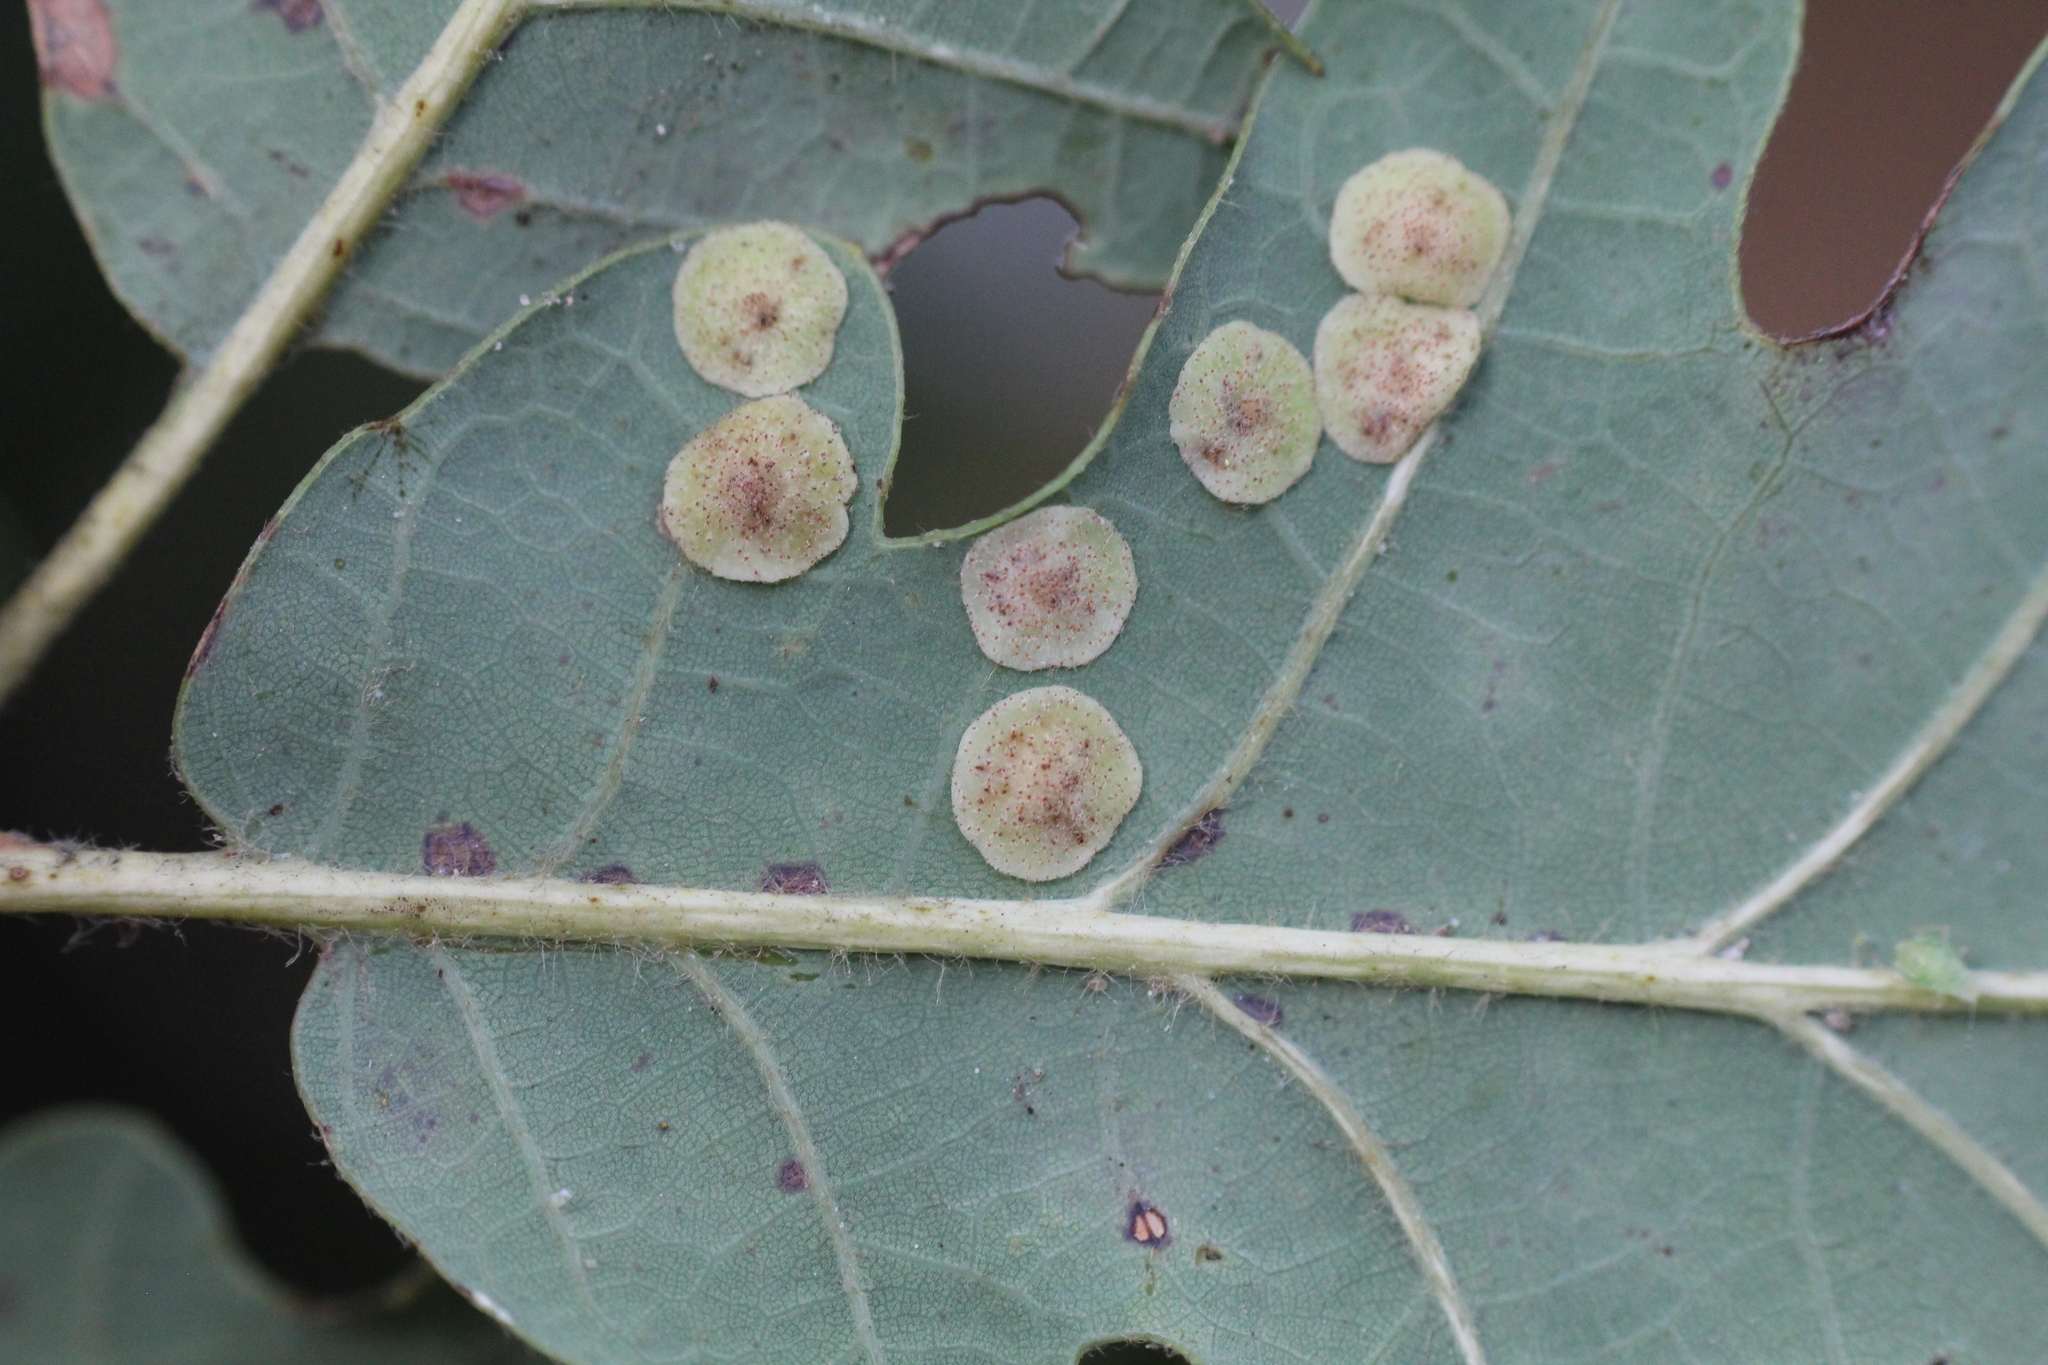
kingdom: Animalia
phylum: Arthropoda
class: Insecta
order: Hymenoptera
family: Cynipidae
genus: Neuroterus
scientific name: Neuroterus quercusbaccarum
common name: Common spangle gall
